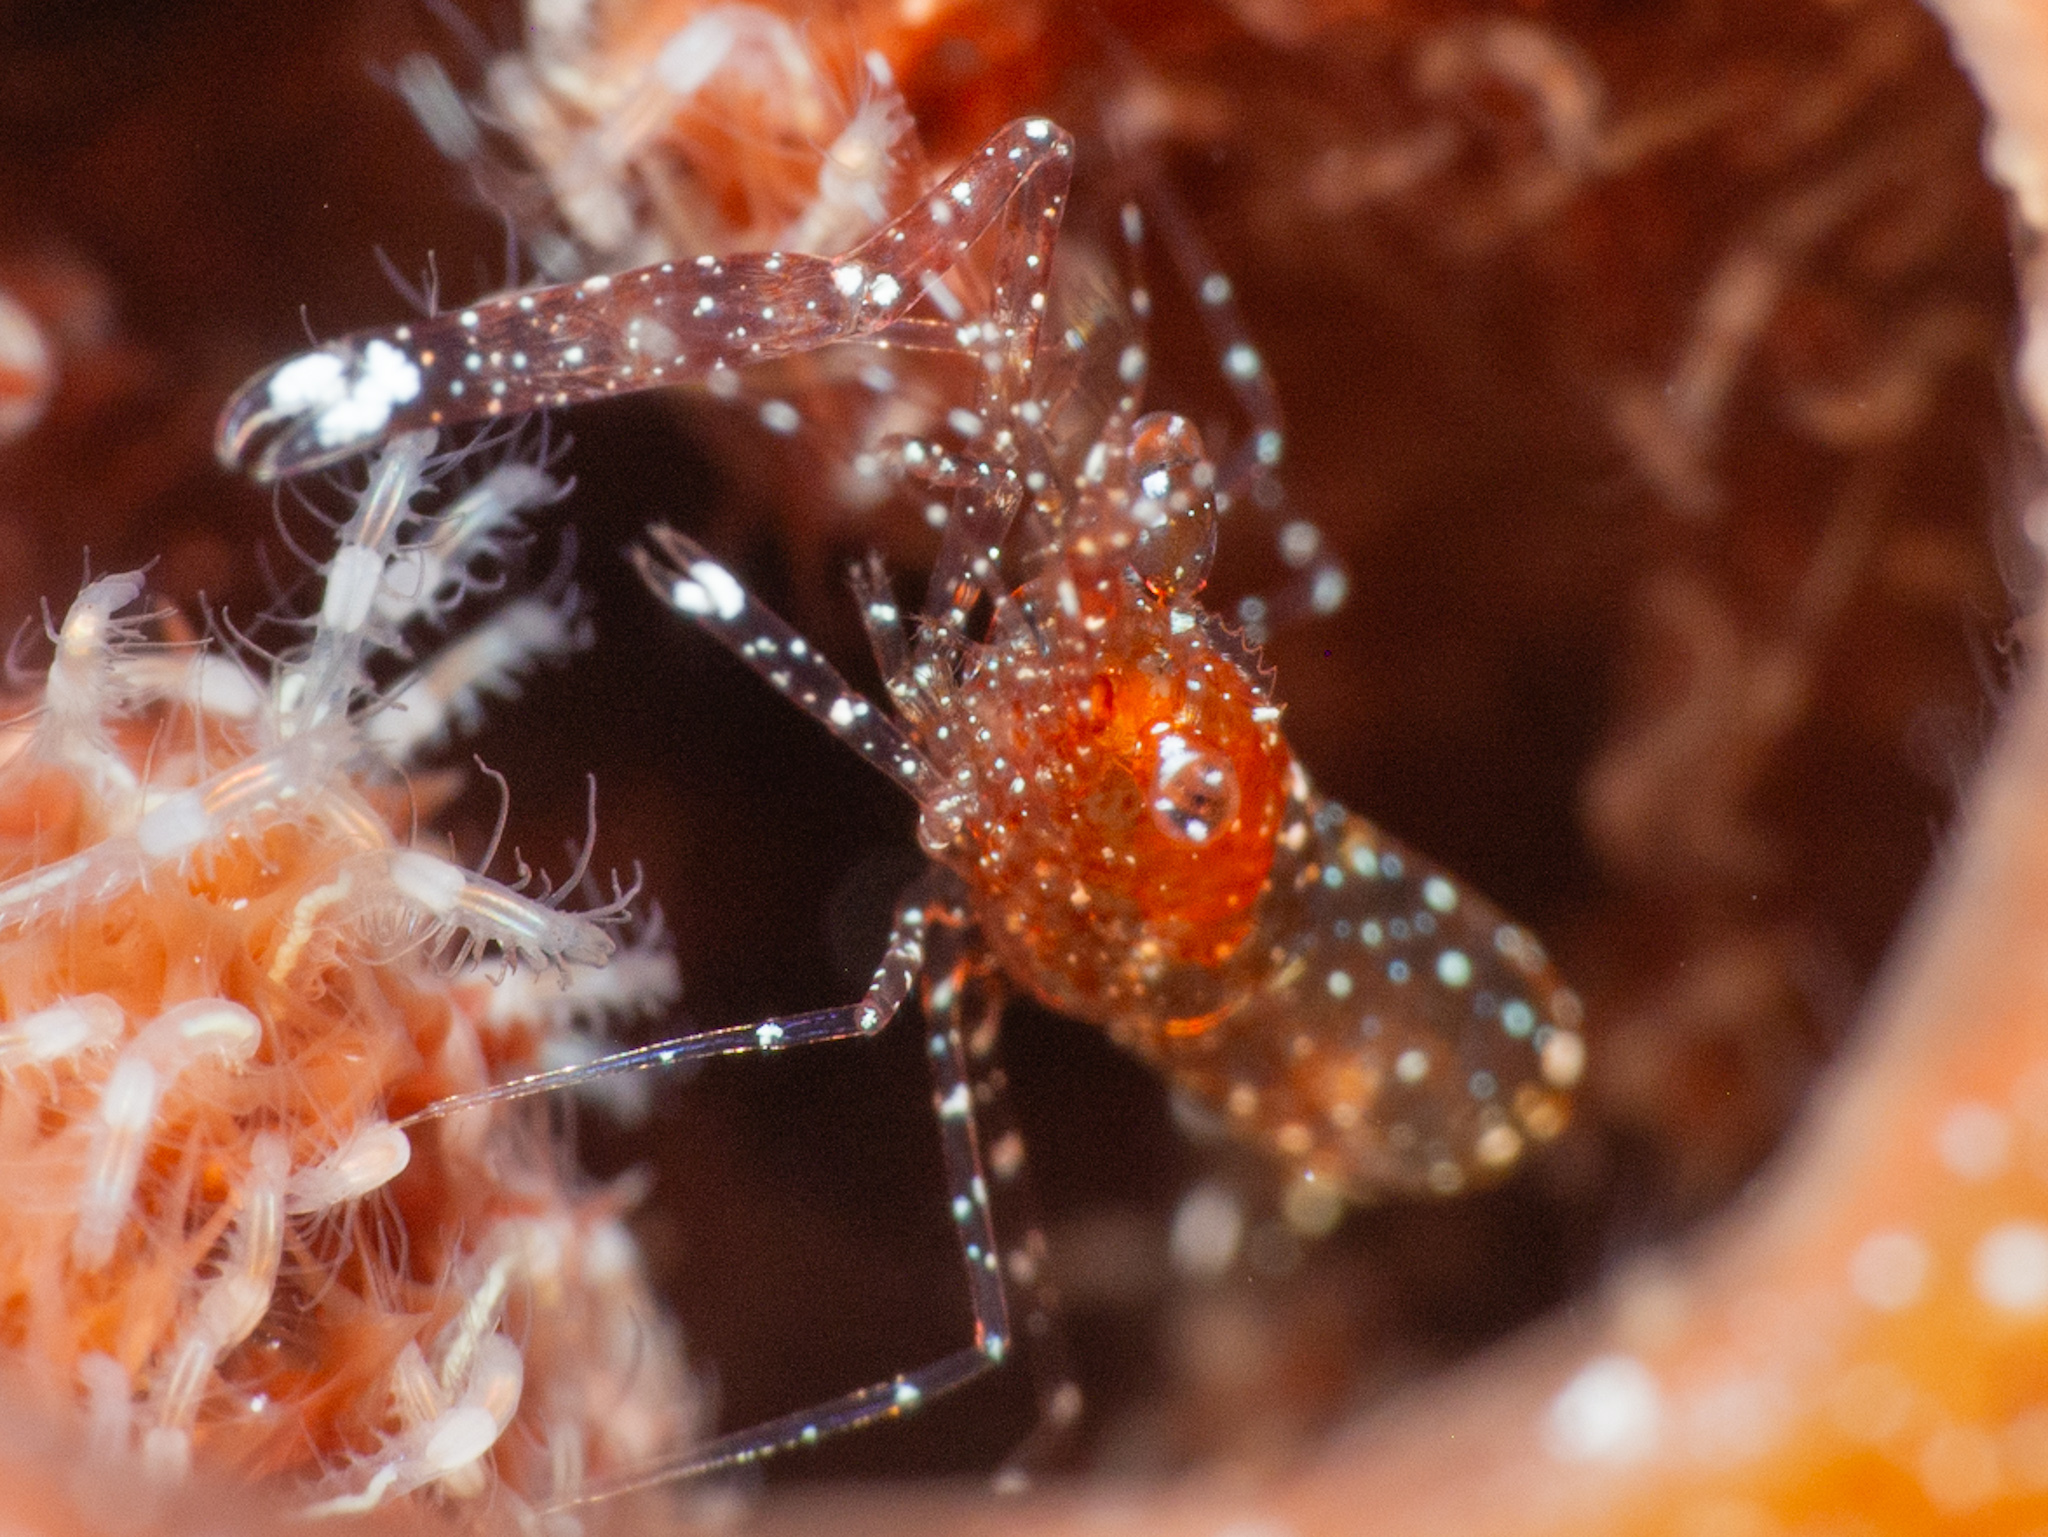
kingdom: Animalia
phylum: Arthropoda
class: Malacostraca
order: Decapoda
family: Palaemonidae
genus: Periclimenes
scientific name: Periclimenes harringtoni
